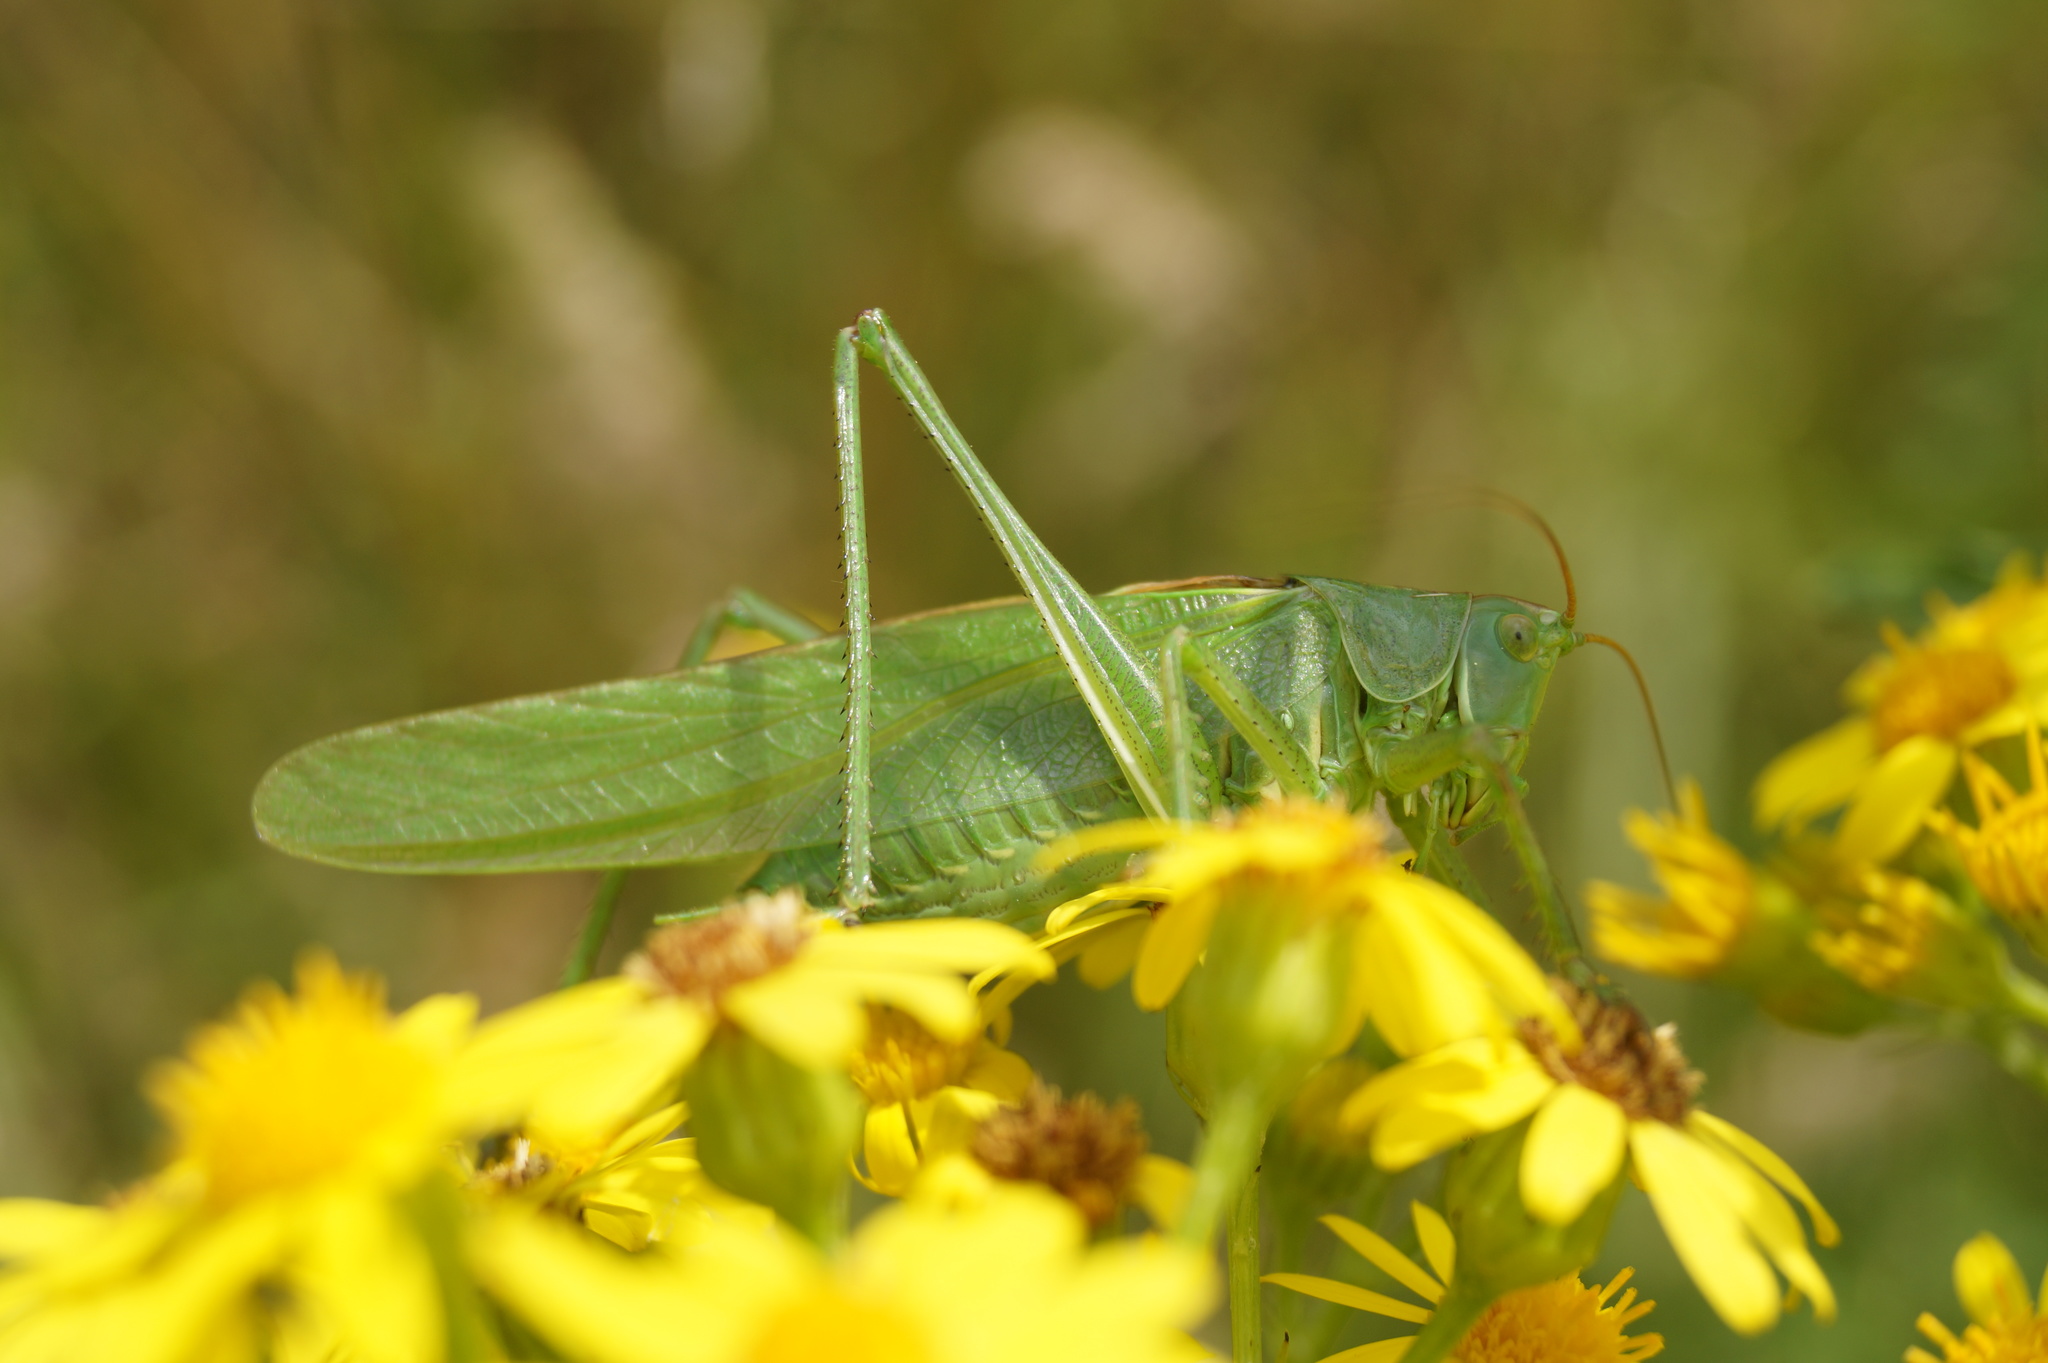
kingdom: Animalia
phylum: Arthropoda
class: Insecta
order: Orthoptera
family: Tettigoniidae
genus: Tettigonia
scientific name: Tettigonia viridissima
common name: Great green bush-cricket
